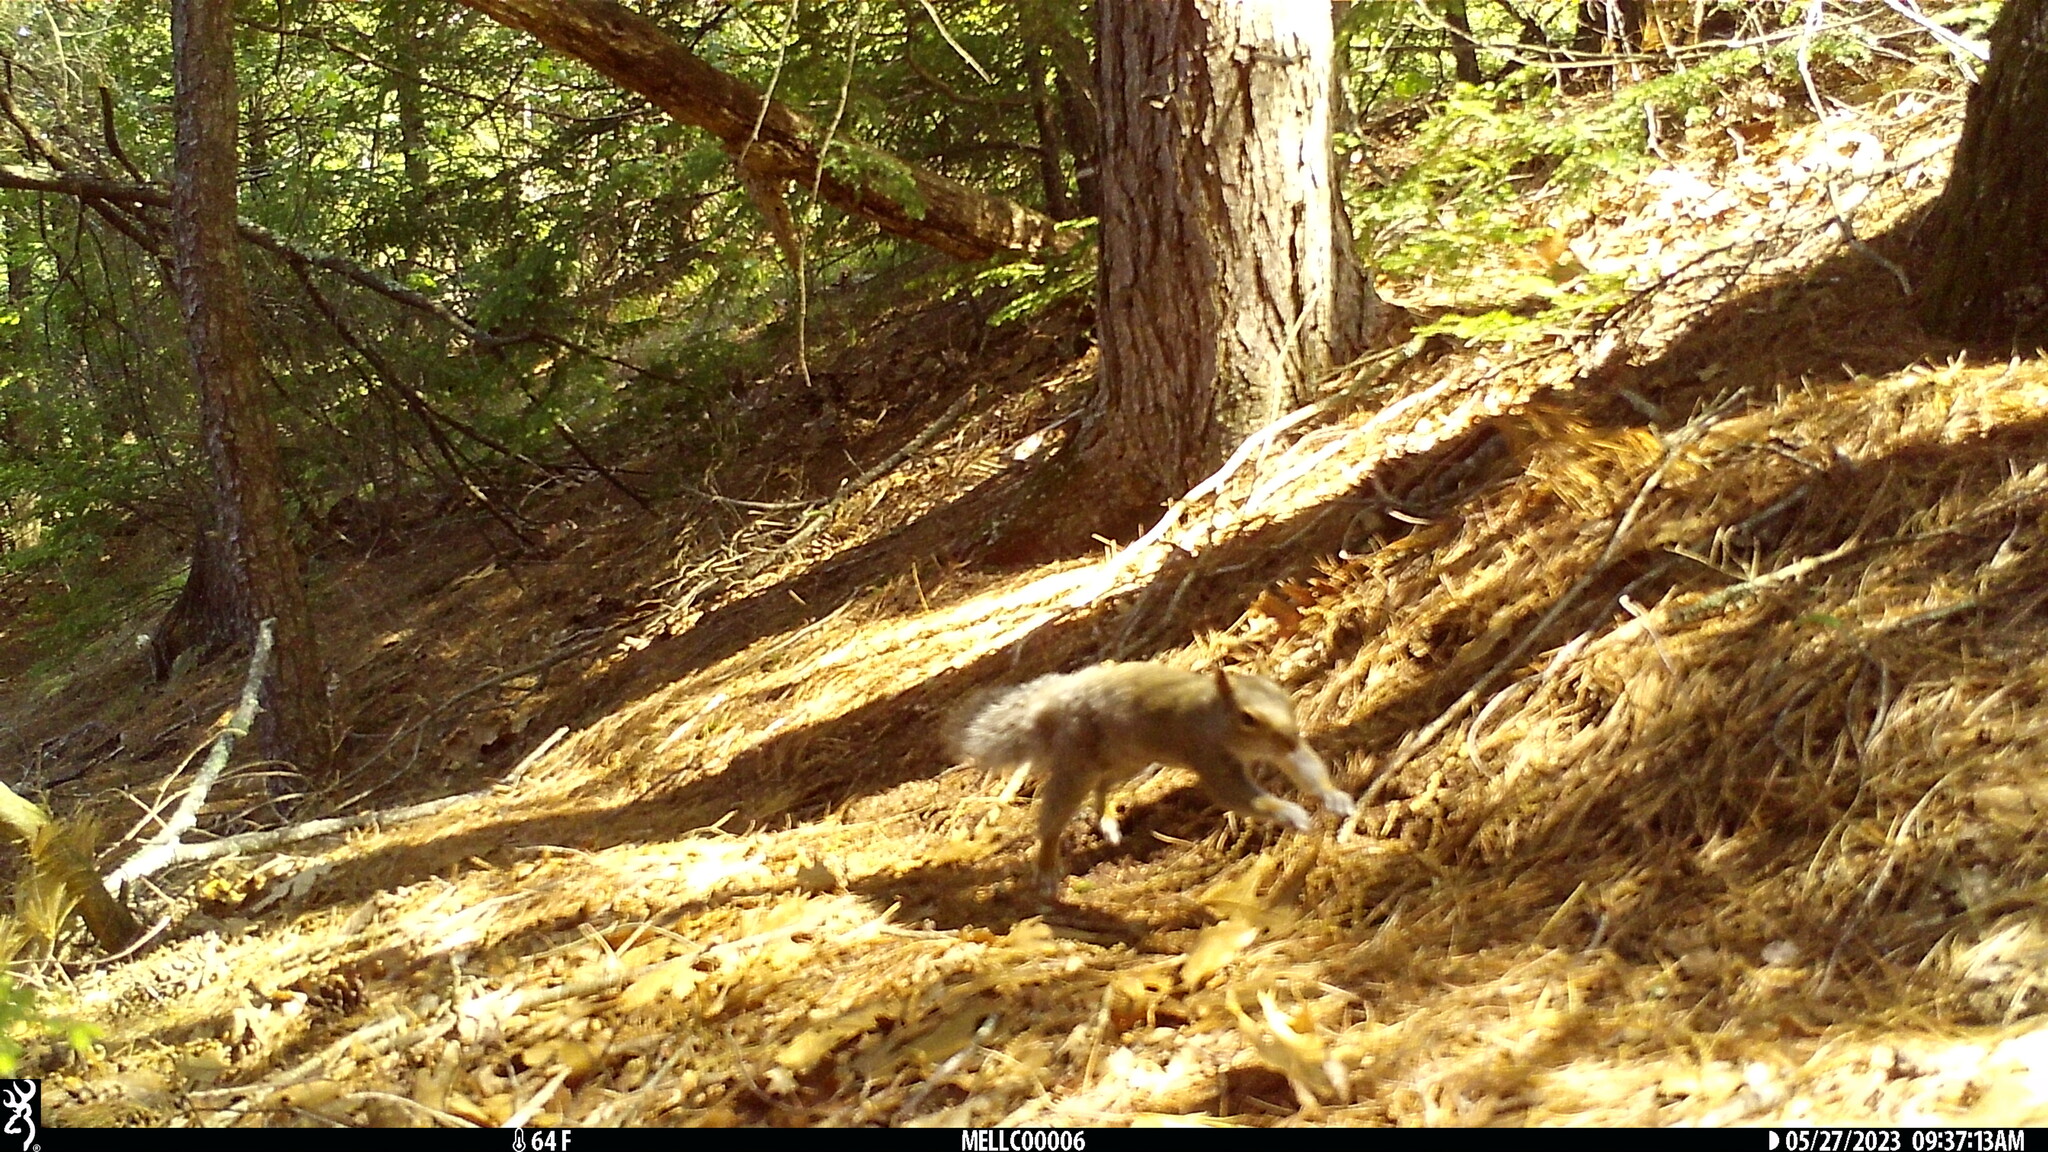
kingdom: Animalia
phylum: Chordata
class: Mammalia
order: Rodentia
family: Sciuridae
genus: Sciurus
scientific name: Sciurus carolinensis
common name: Eastern gray squirrel
